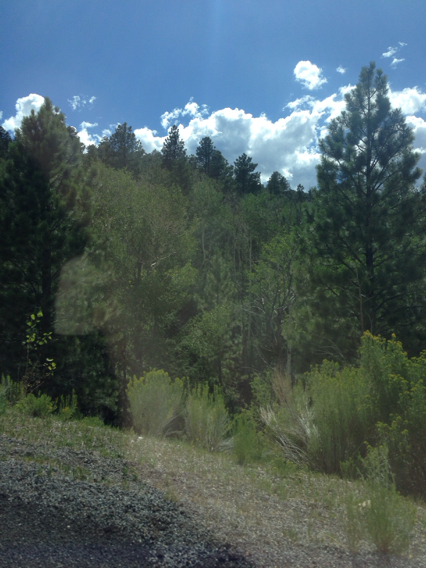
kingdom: Plantae
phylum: Tracheophyta
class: Magnoliopsida
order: Malpighiales
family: Salicaceae
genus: Populus
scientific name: Populus tremuloides
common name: Quaking aspen
